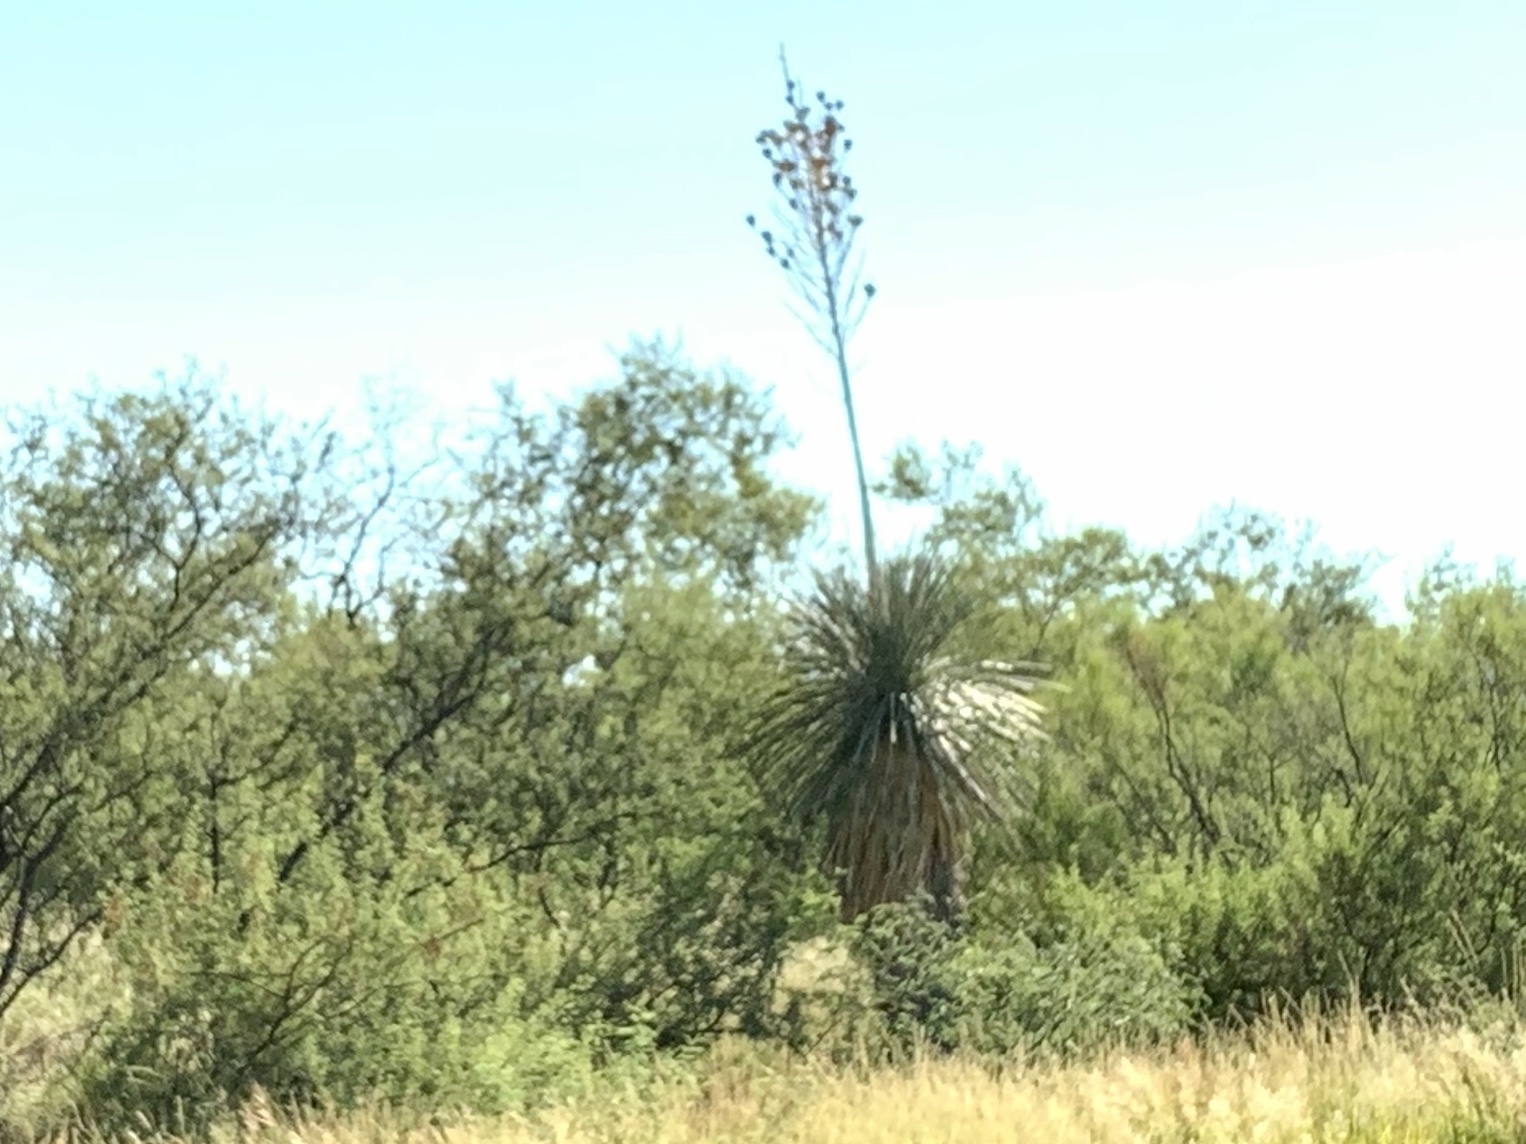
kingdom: Plantae
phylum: Tracheophyta
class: Liliopsida
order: Asparagales
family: Asparagaceae
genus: Yucca
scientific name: Yucca elata
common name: Palmella
